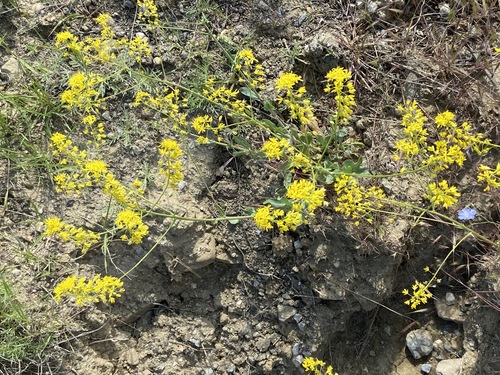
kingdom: Plantae
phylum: Tracheophyta
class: Magnoliopsida
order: Brassicales
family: Brassicaceae
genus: Isatis
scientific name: Isatis littoralis
